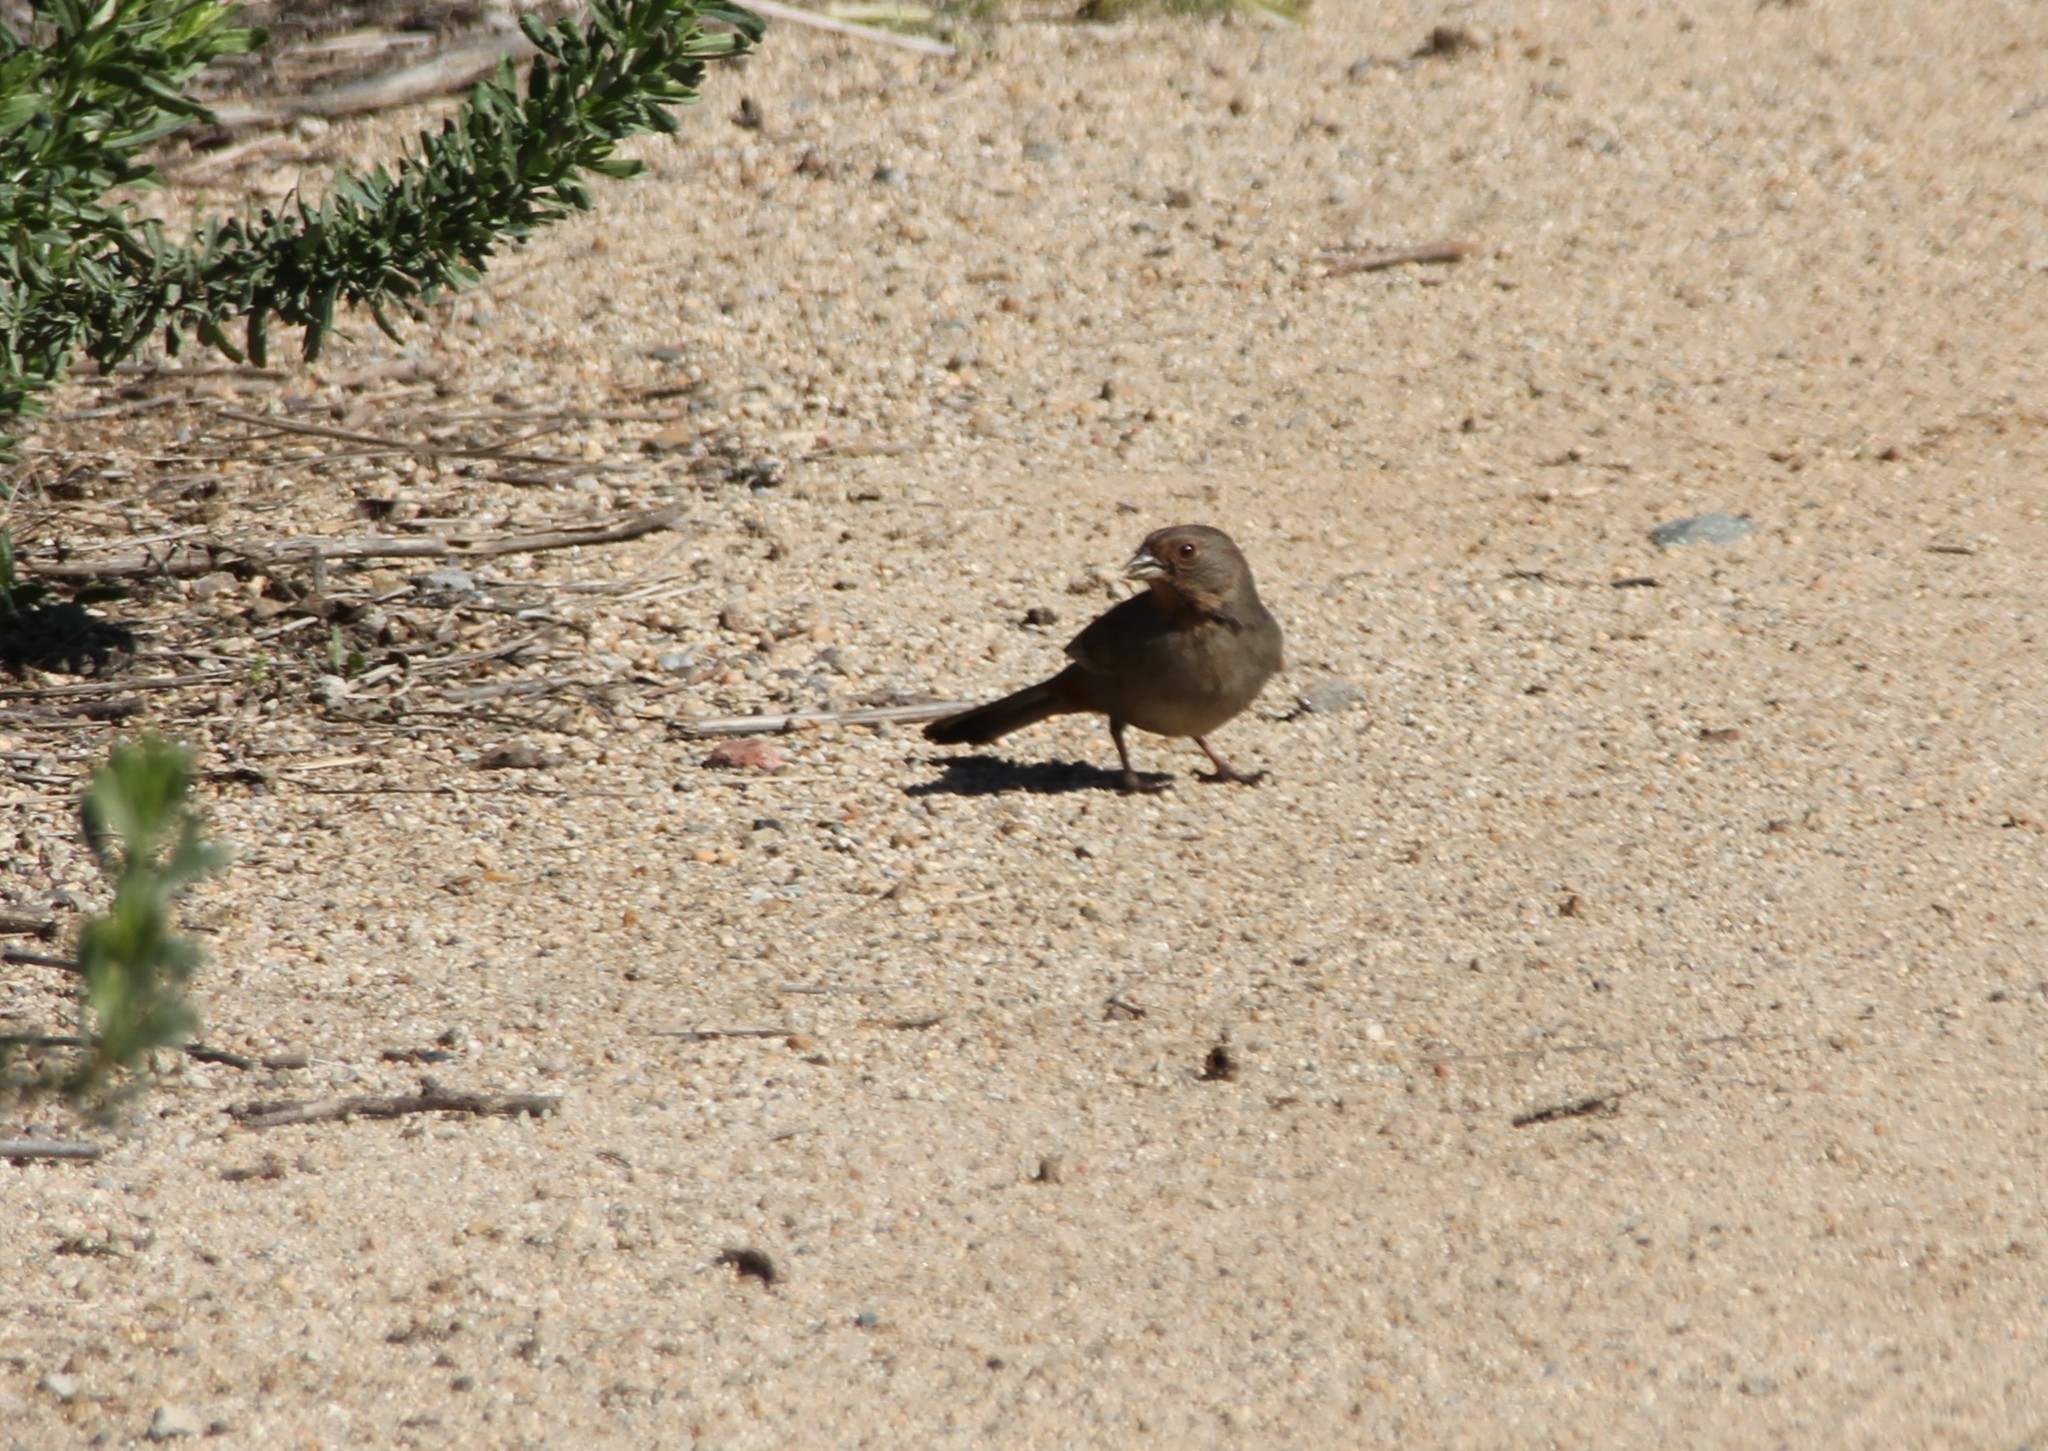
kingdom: Animalia
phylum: Chordata
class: Aves
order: Passeriformes
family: Passerellidae
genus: Melozone
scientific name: Melozone crissalis
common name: California towhee
